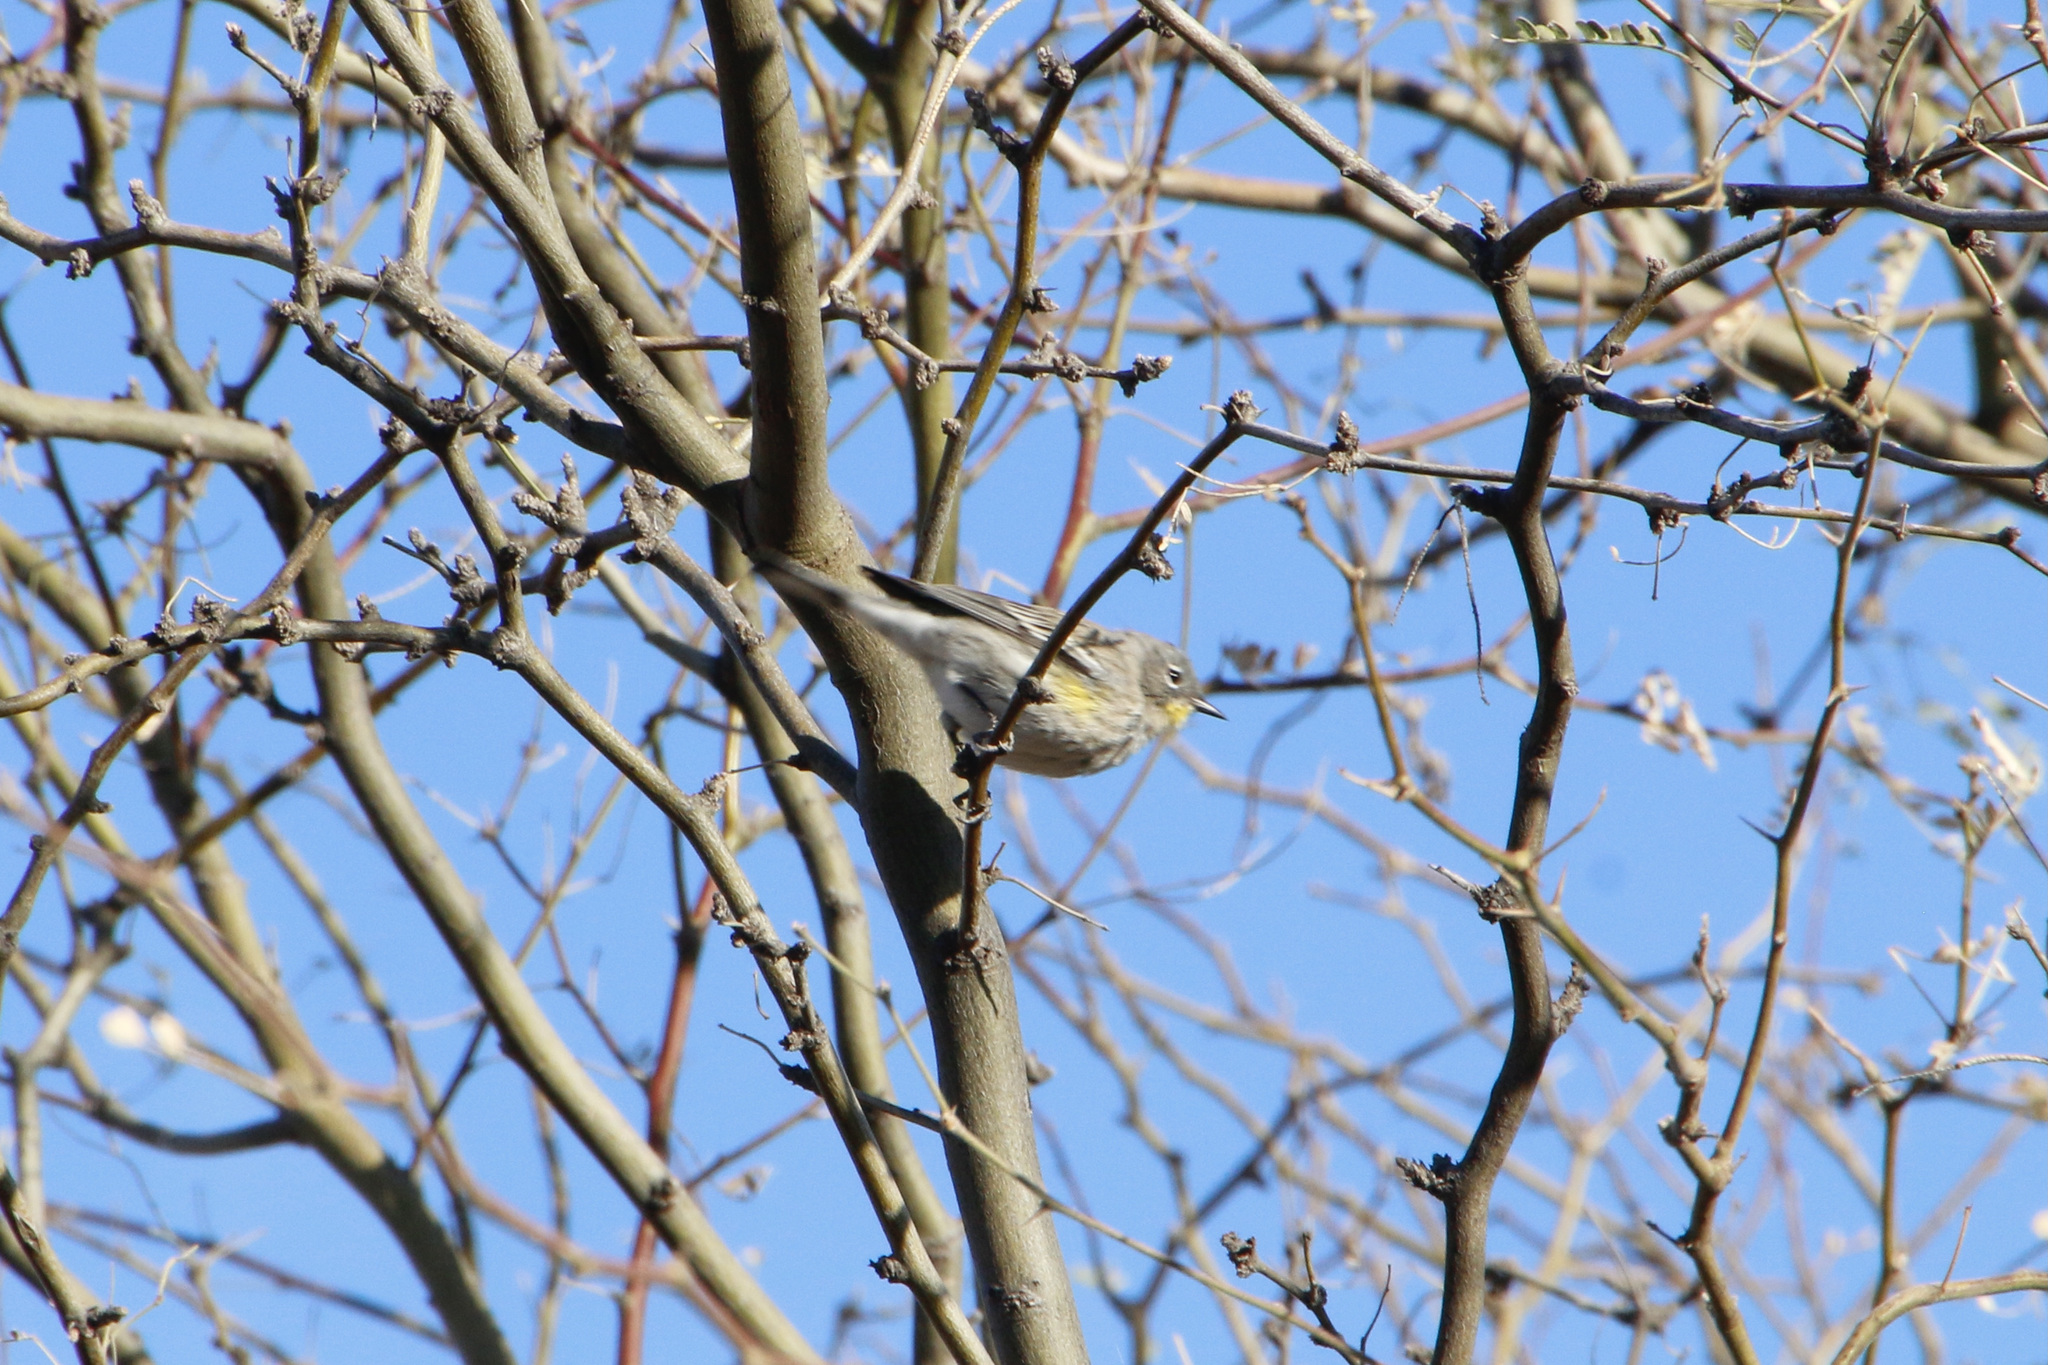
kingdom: Animalia
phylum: Chordata
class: Aves
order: Passeriformes
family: Parulidae
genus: Setophaga
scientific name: Setophaga auduboni
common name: Audubon's warbler
